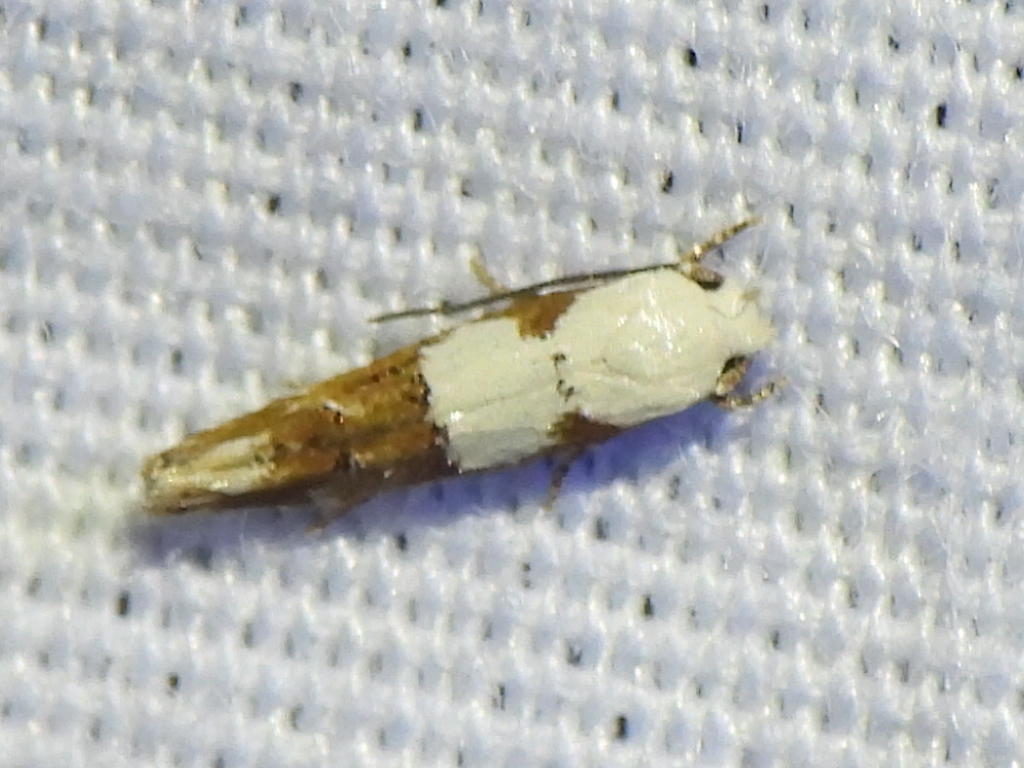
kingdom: Animalia
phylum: Arthropoda
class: Insecta
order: Lepidoptera
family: Momphidae
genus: Mompha
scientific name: Mompha circumscriptella
